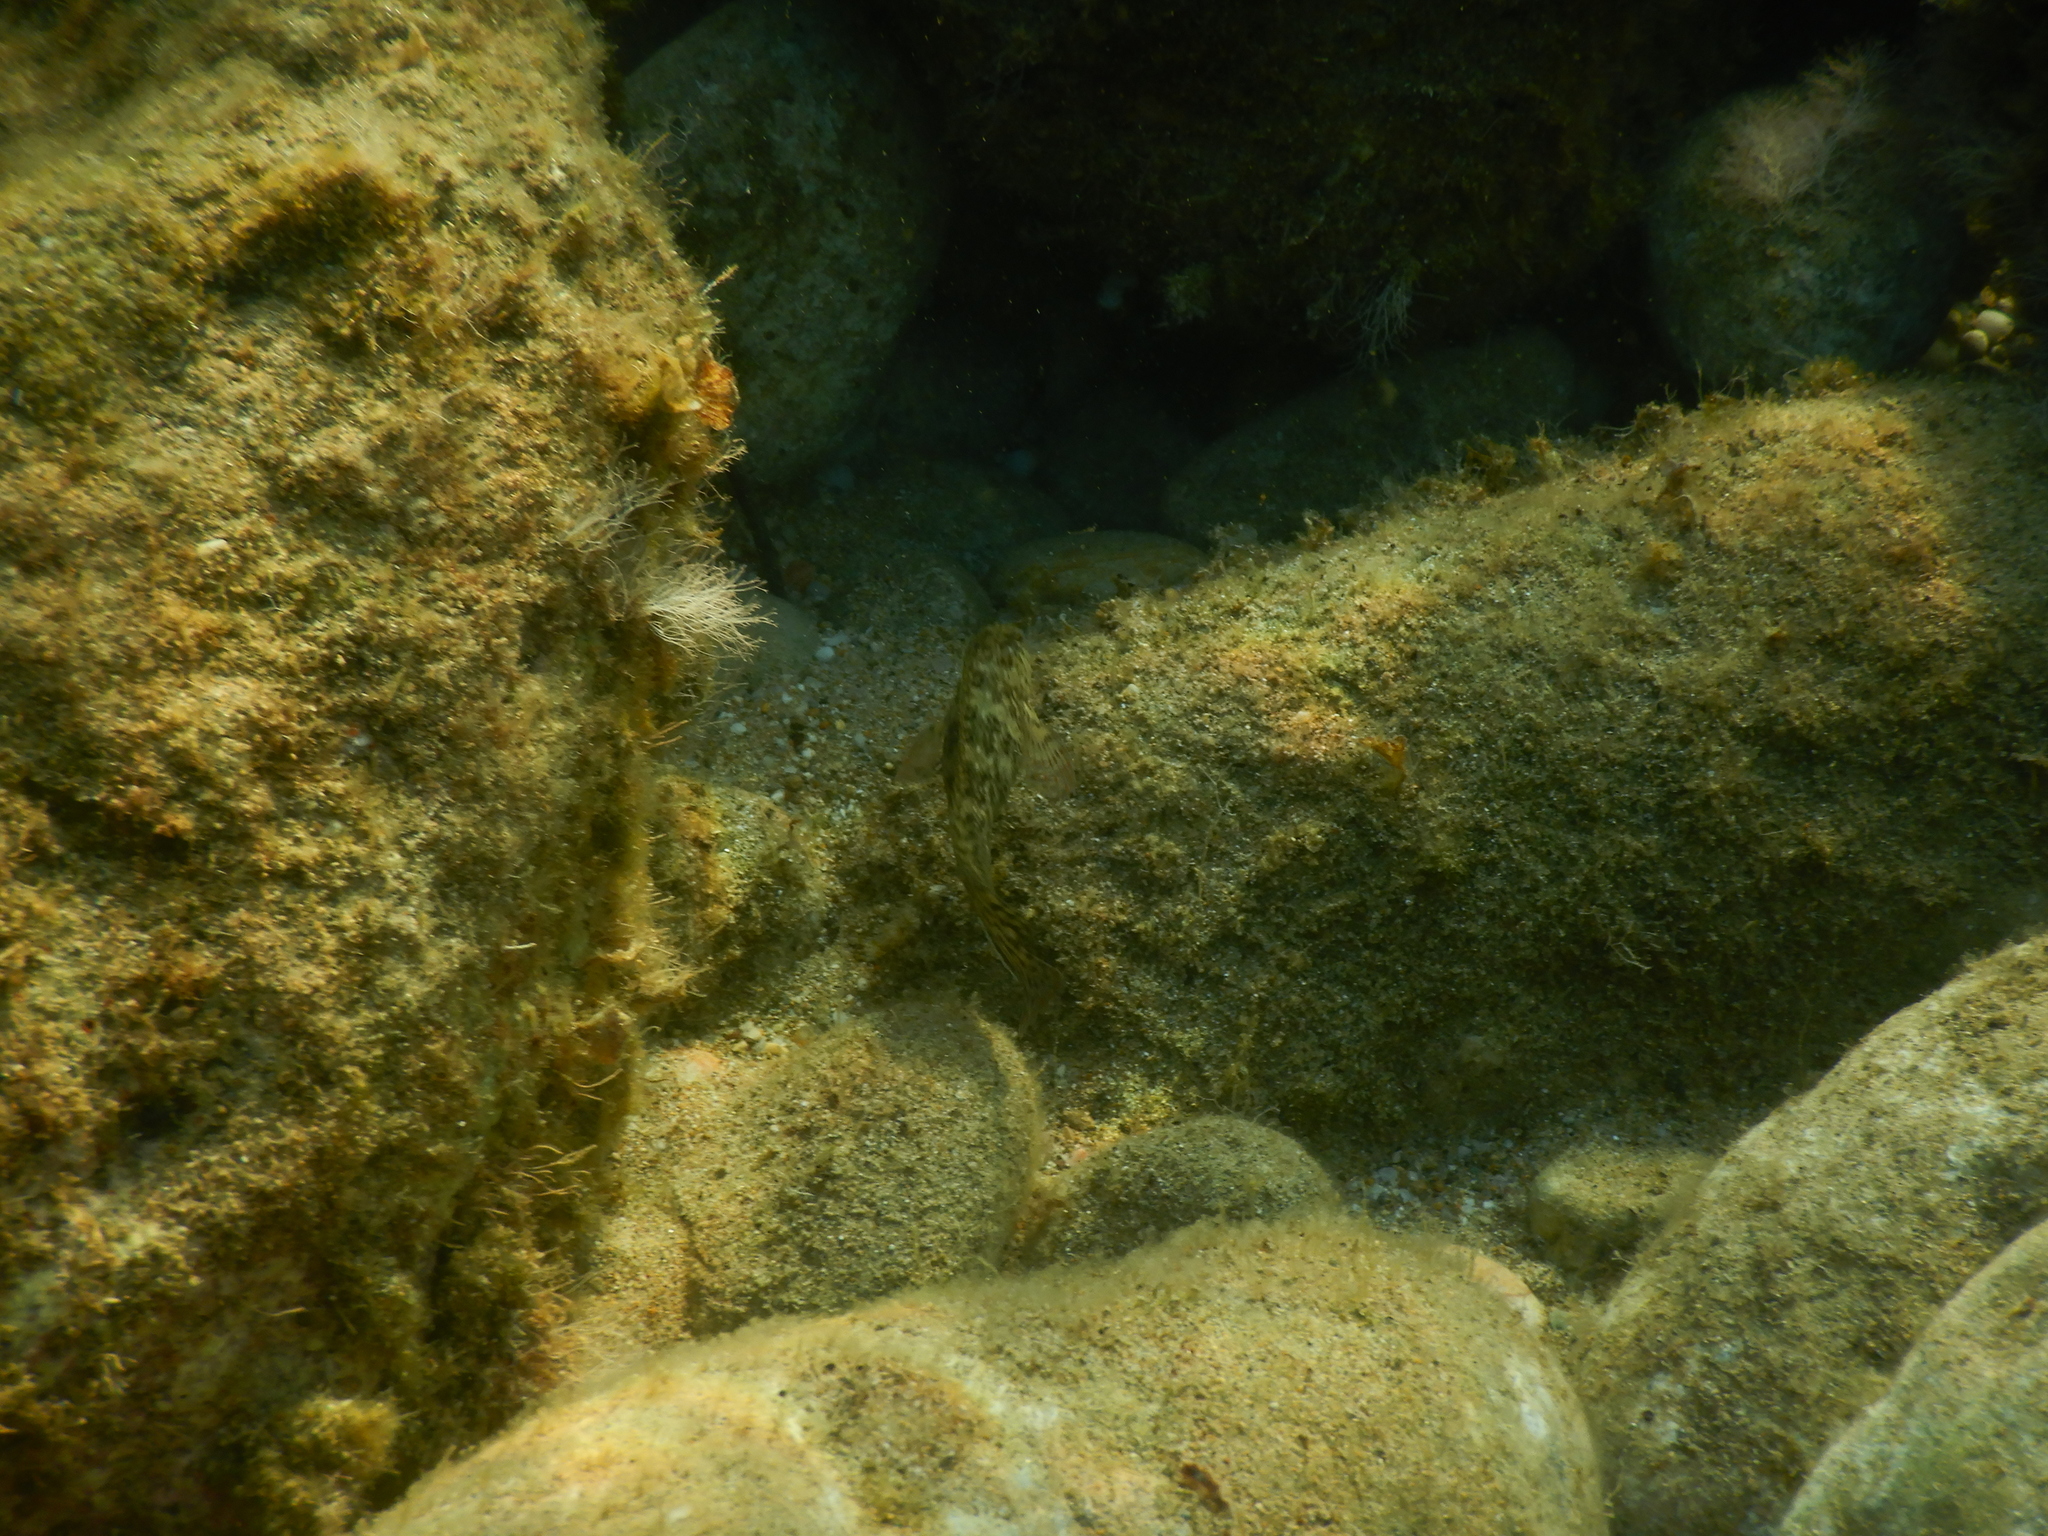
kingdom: Animalia
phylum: Chordata
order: Perciformes
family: Blenniidae
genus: Parablennius
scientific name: Parablennius sanguinolentus
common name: Black sea blenny
